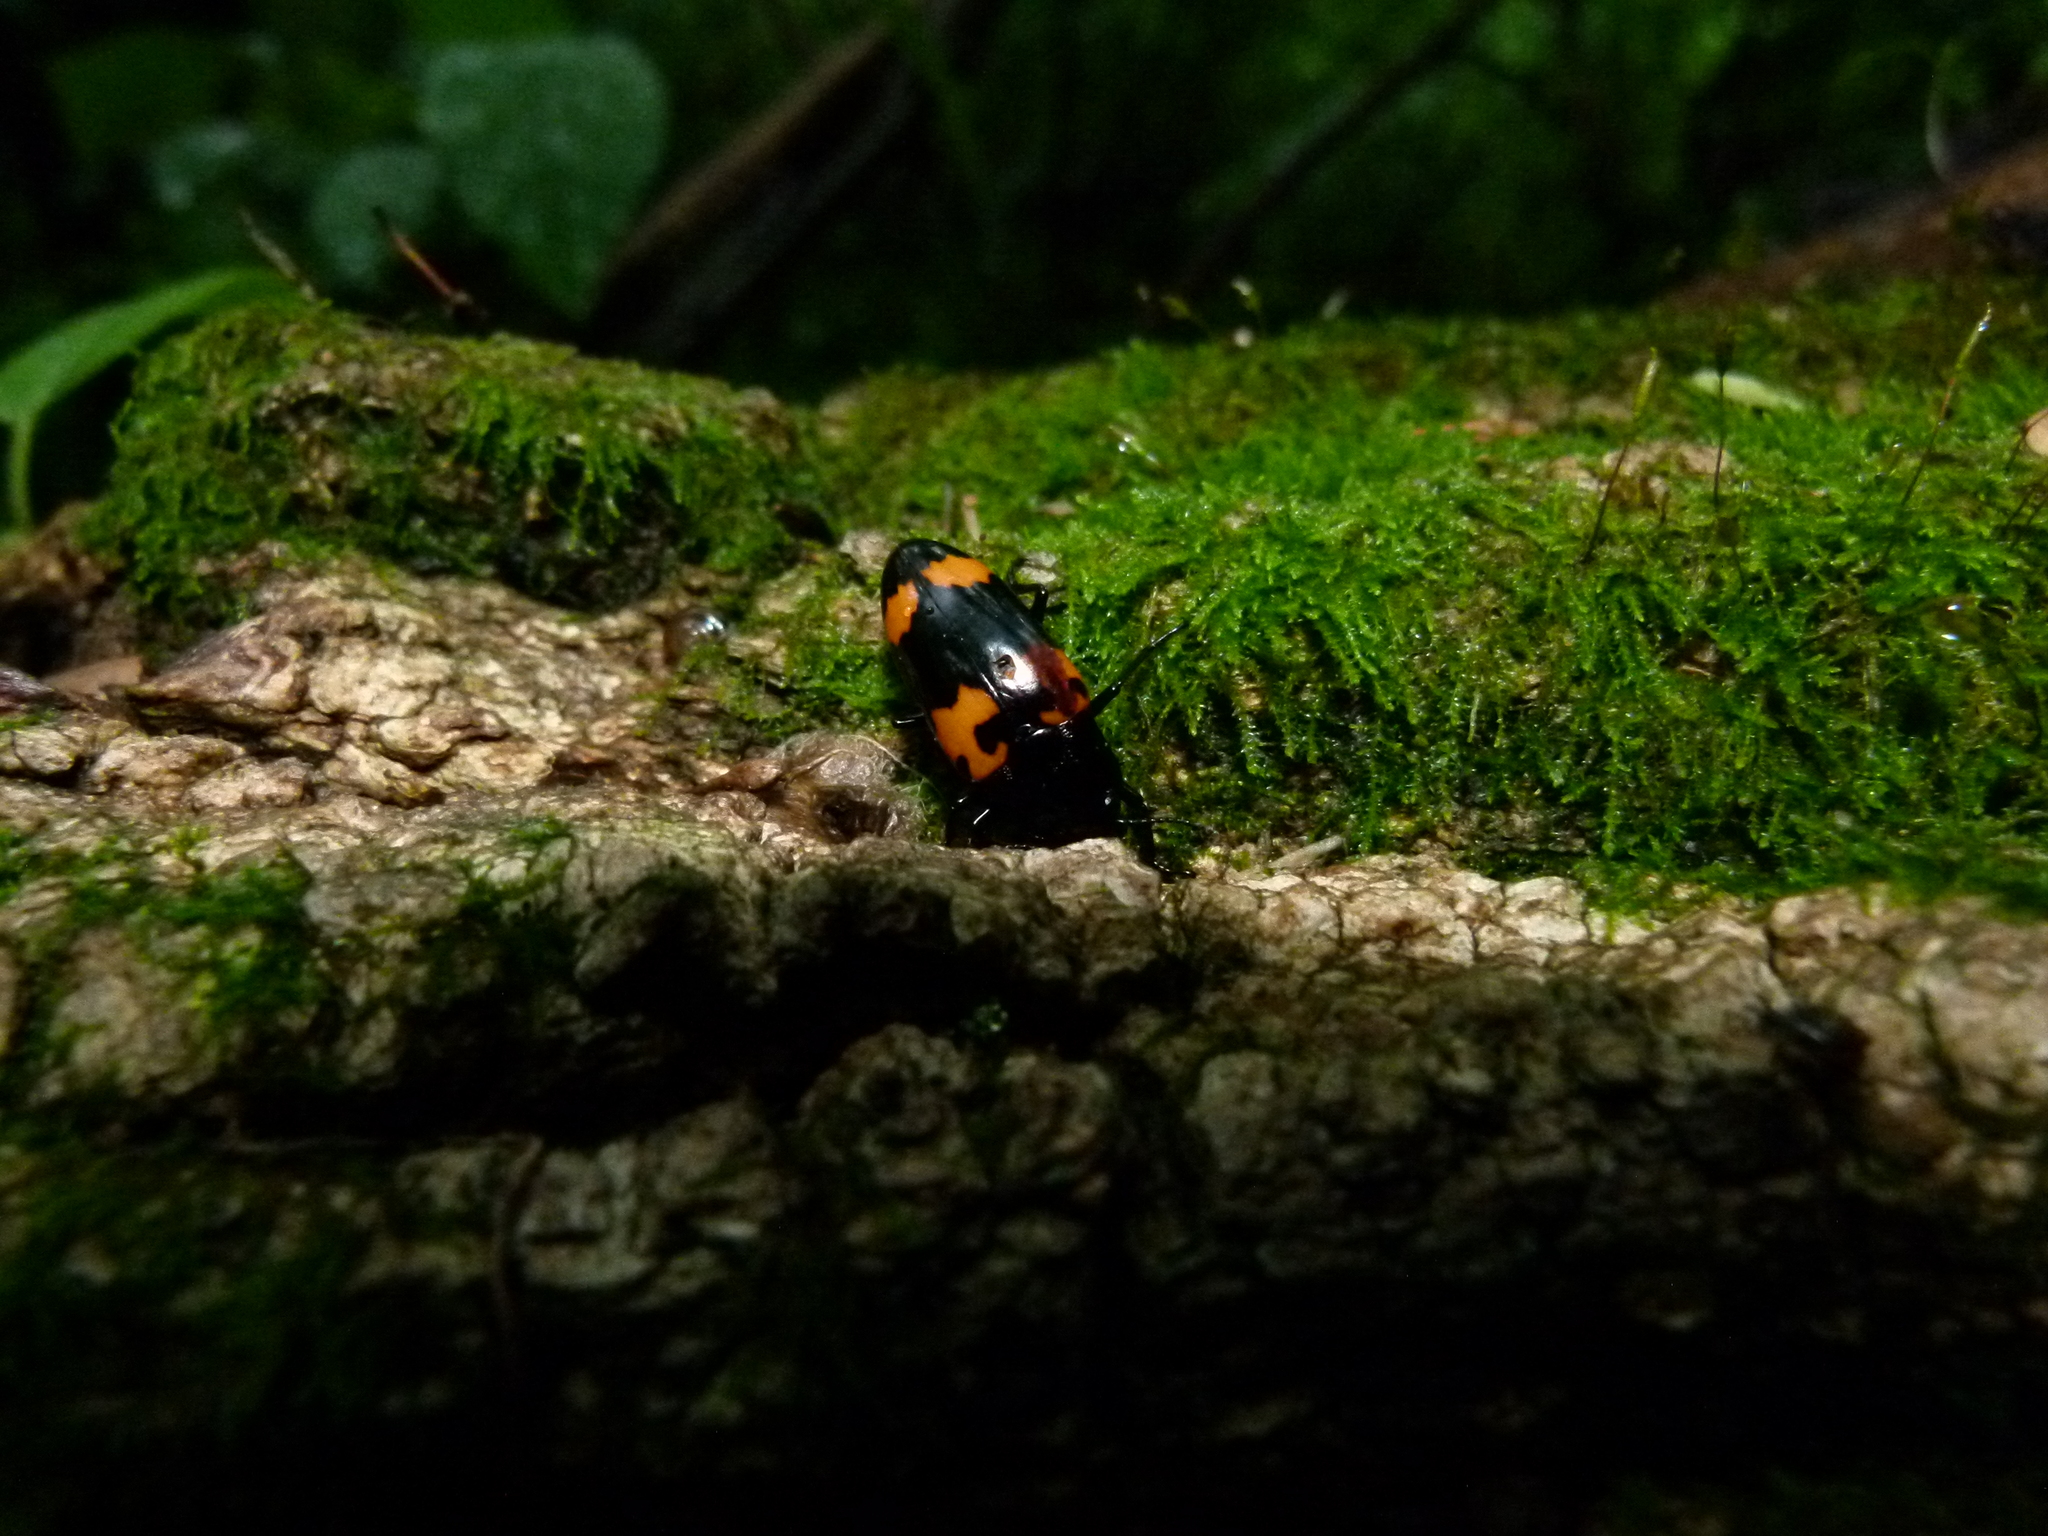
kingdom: Animalia
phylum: Arthropoda
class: Insecta
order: Coleoptera
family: Erotylidae
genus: Megalodacne
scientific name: Megalodacne heros
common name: Pleasing fungus beetle
